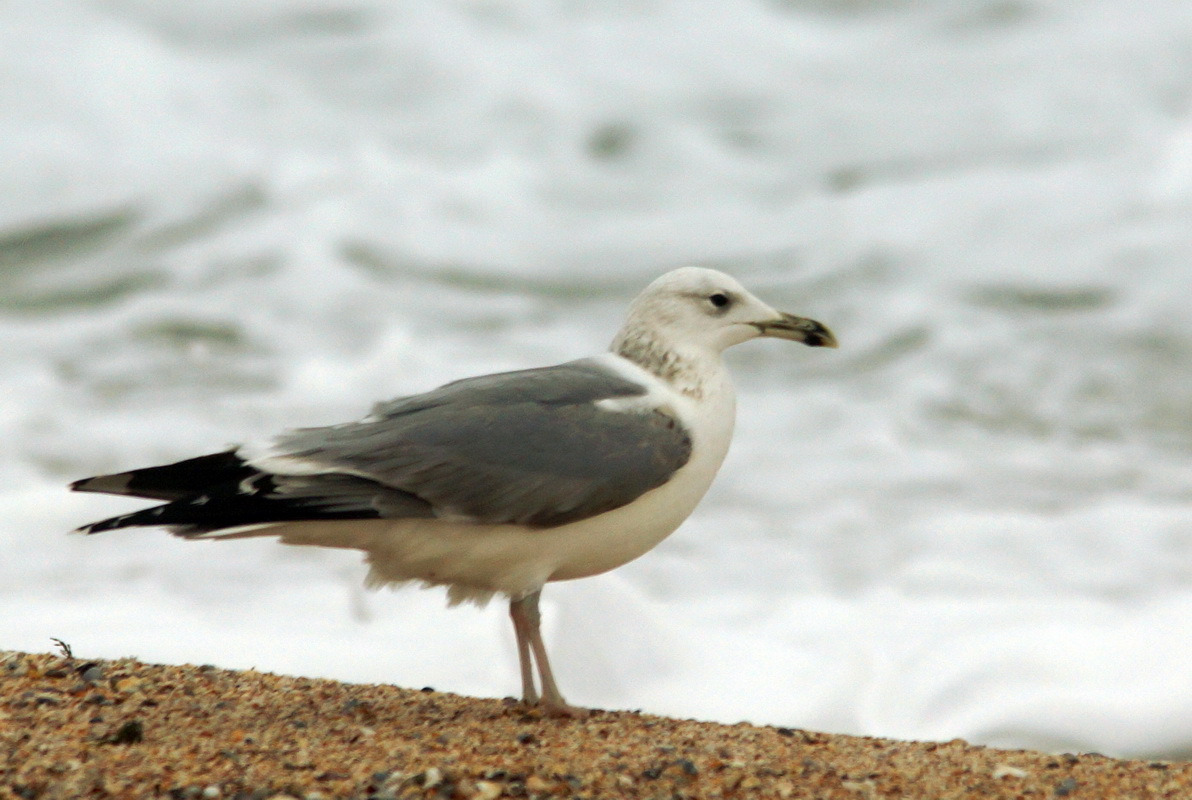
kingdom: Animalia
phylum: Chordata
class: Aves
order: Charadriiformes
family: Laridae
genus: Larus
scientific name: Larus cachinnans
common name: Caspian gull
